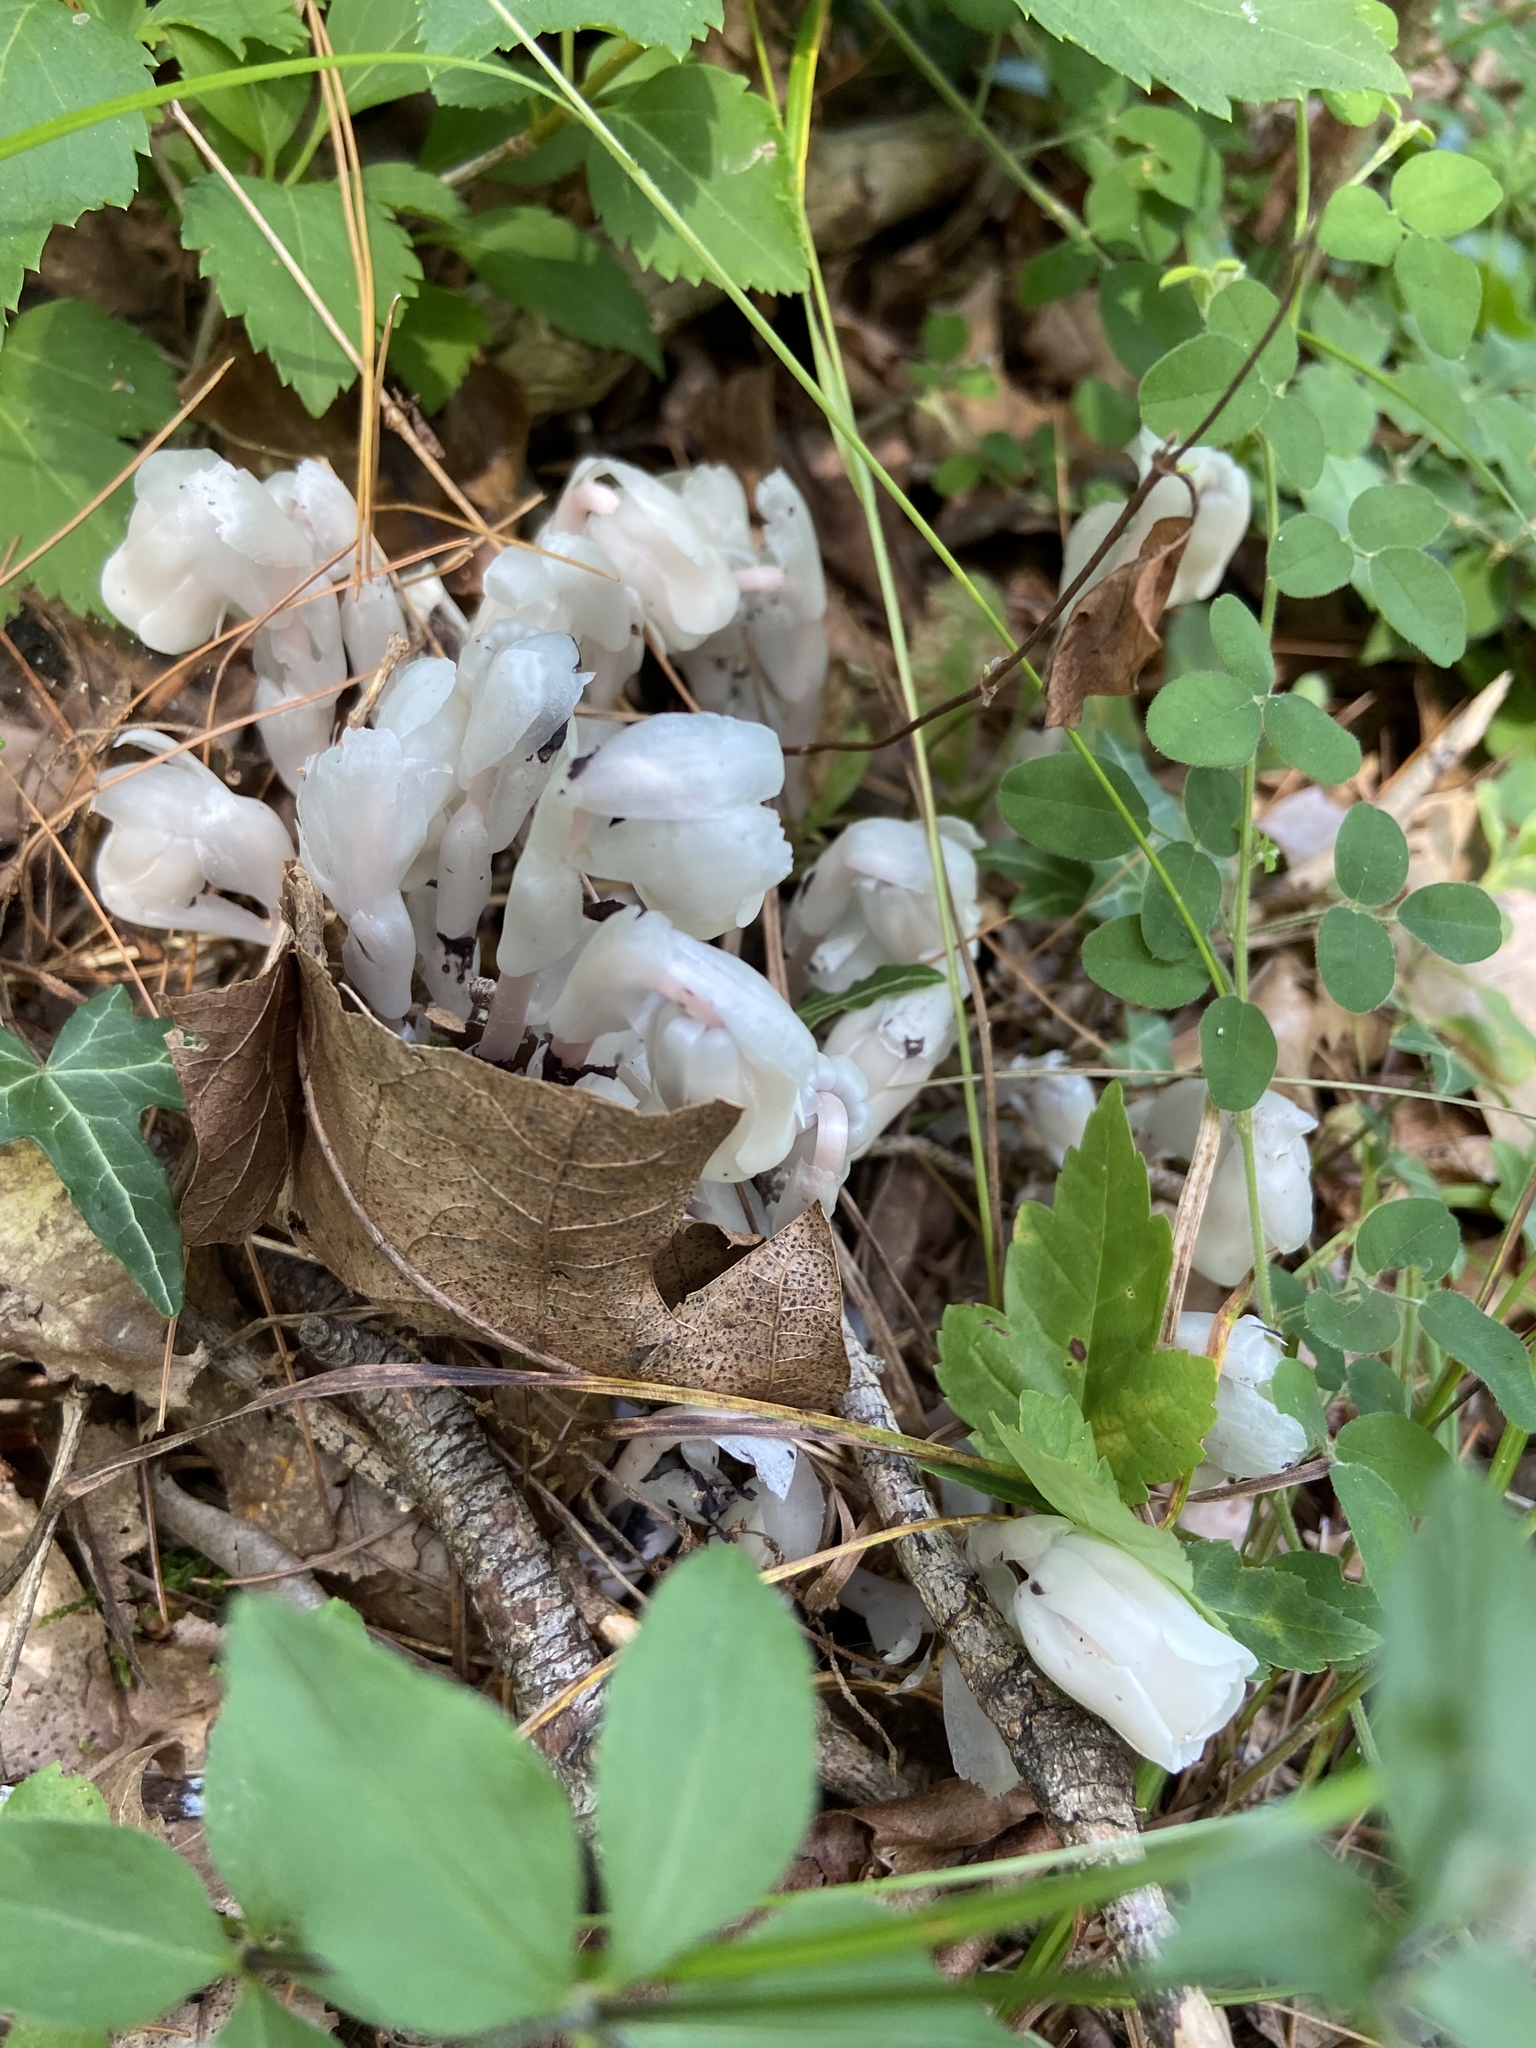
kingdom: Plantae
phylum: Tracheophyta
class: Magnoliopsida
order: Ericales
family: Ericaceae
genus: Monotropa
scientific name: Monotropa uniflora
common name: Convulsion root
